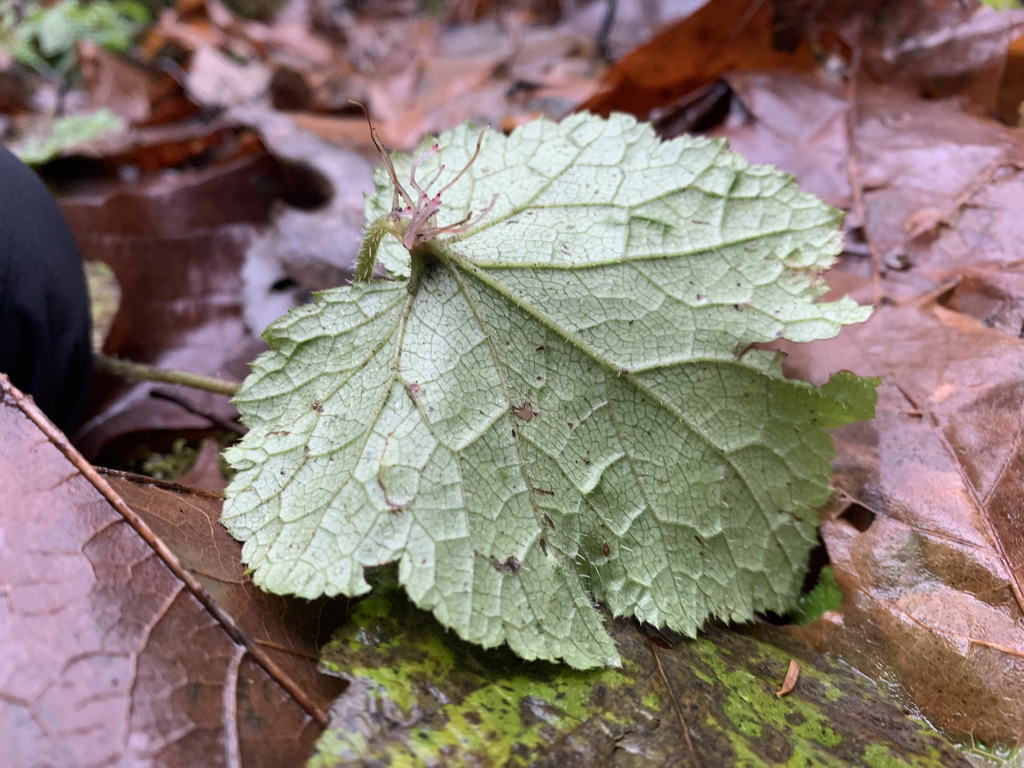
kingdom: Plantae
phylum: Tracheophyta
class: Magnoliopsida
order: Saxifragales
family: Saxifragaceae
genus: Tolmiea
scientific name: Tolmiea menziesii
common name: Pick-a-back-plant
